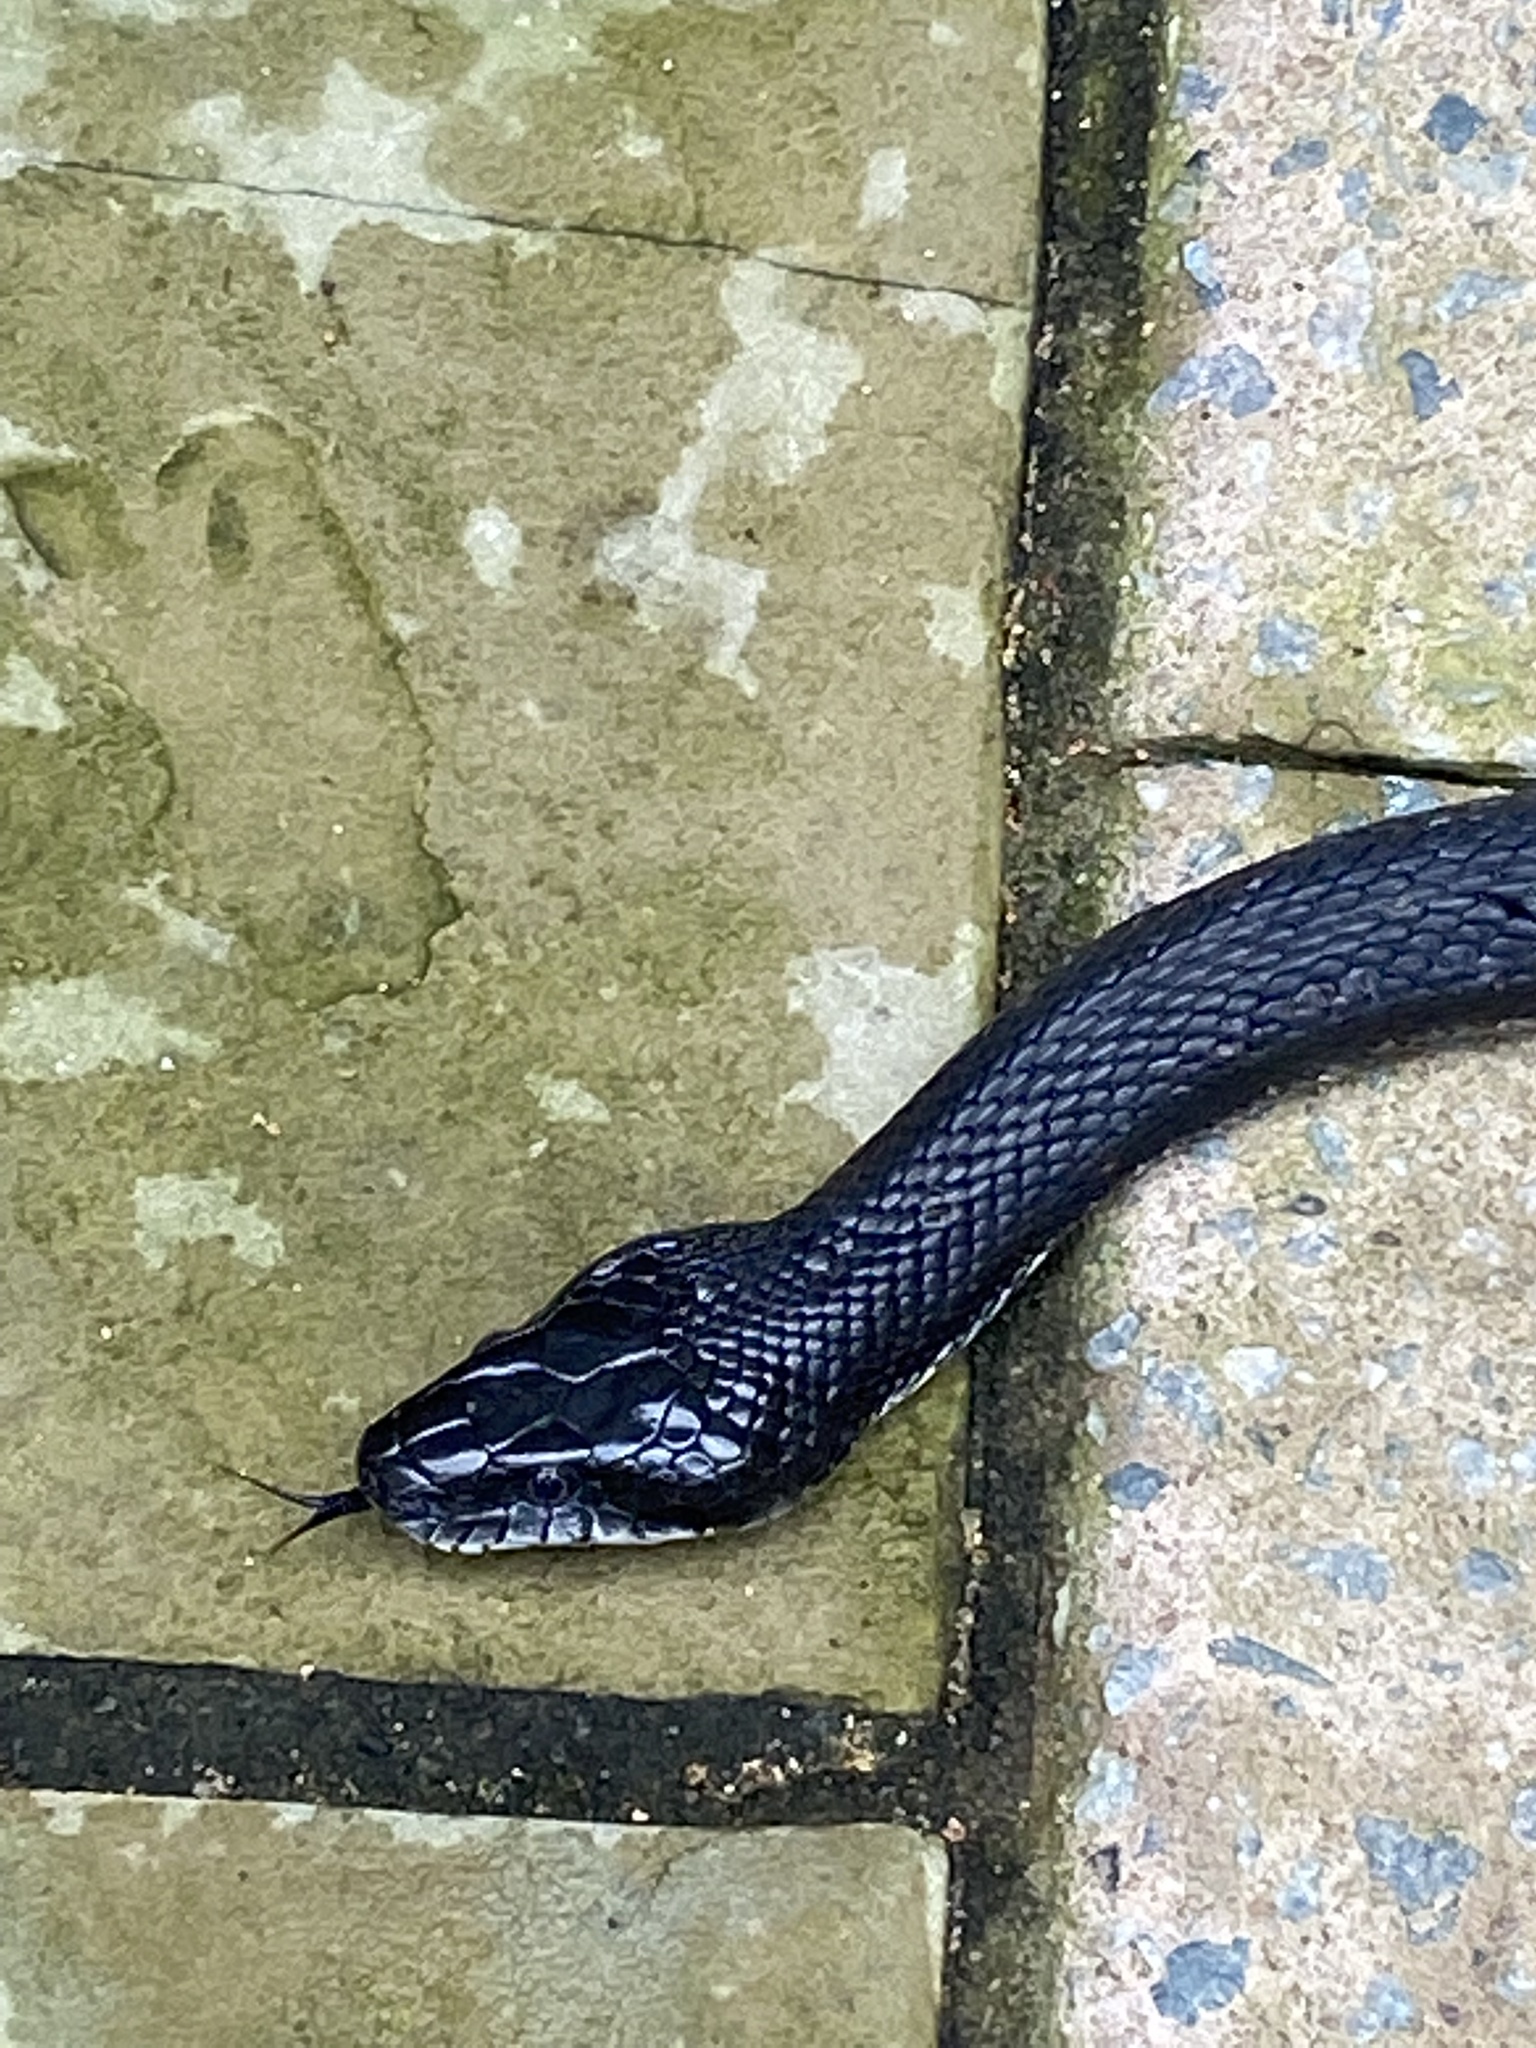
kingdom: Animalia
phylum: Chordata
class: Squamata
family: Colubridae
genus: Pantherophis
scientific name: Pantherophis
